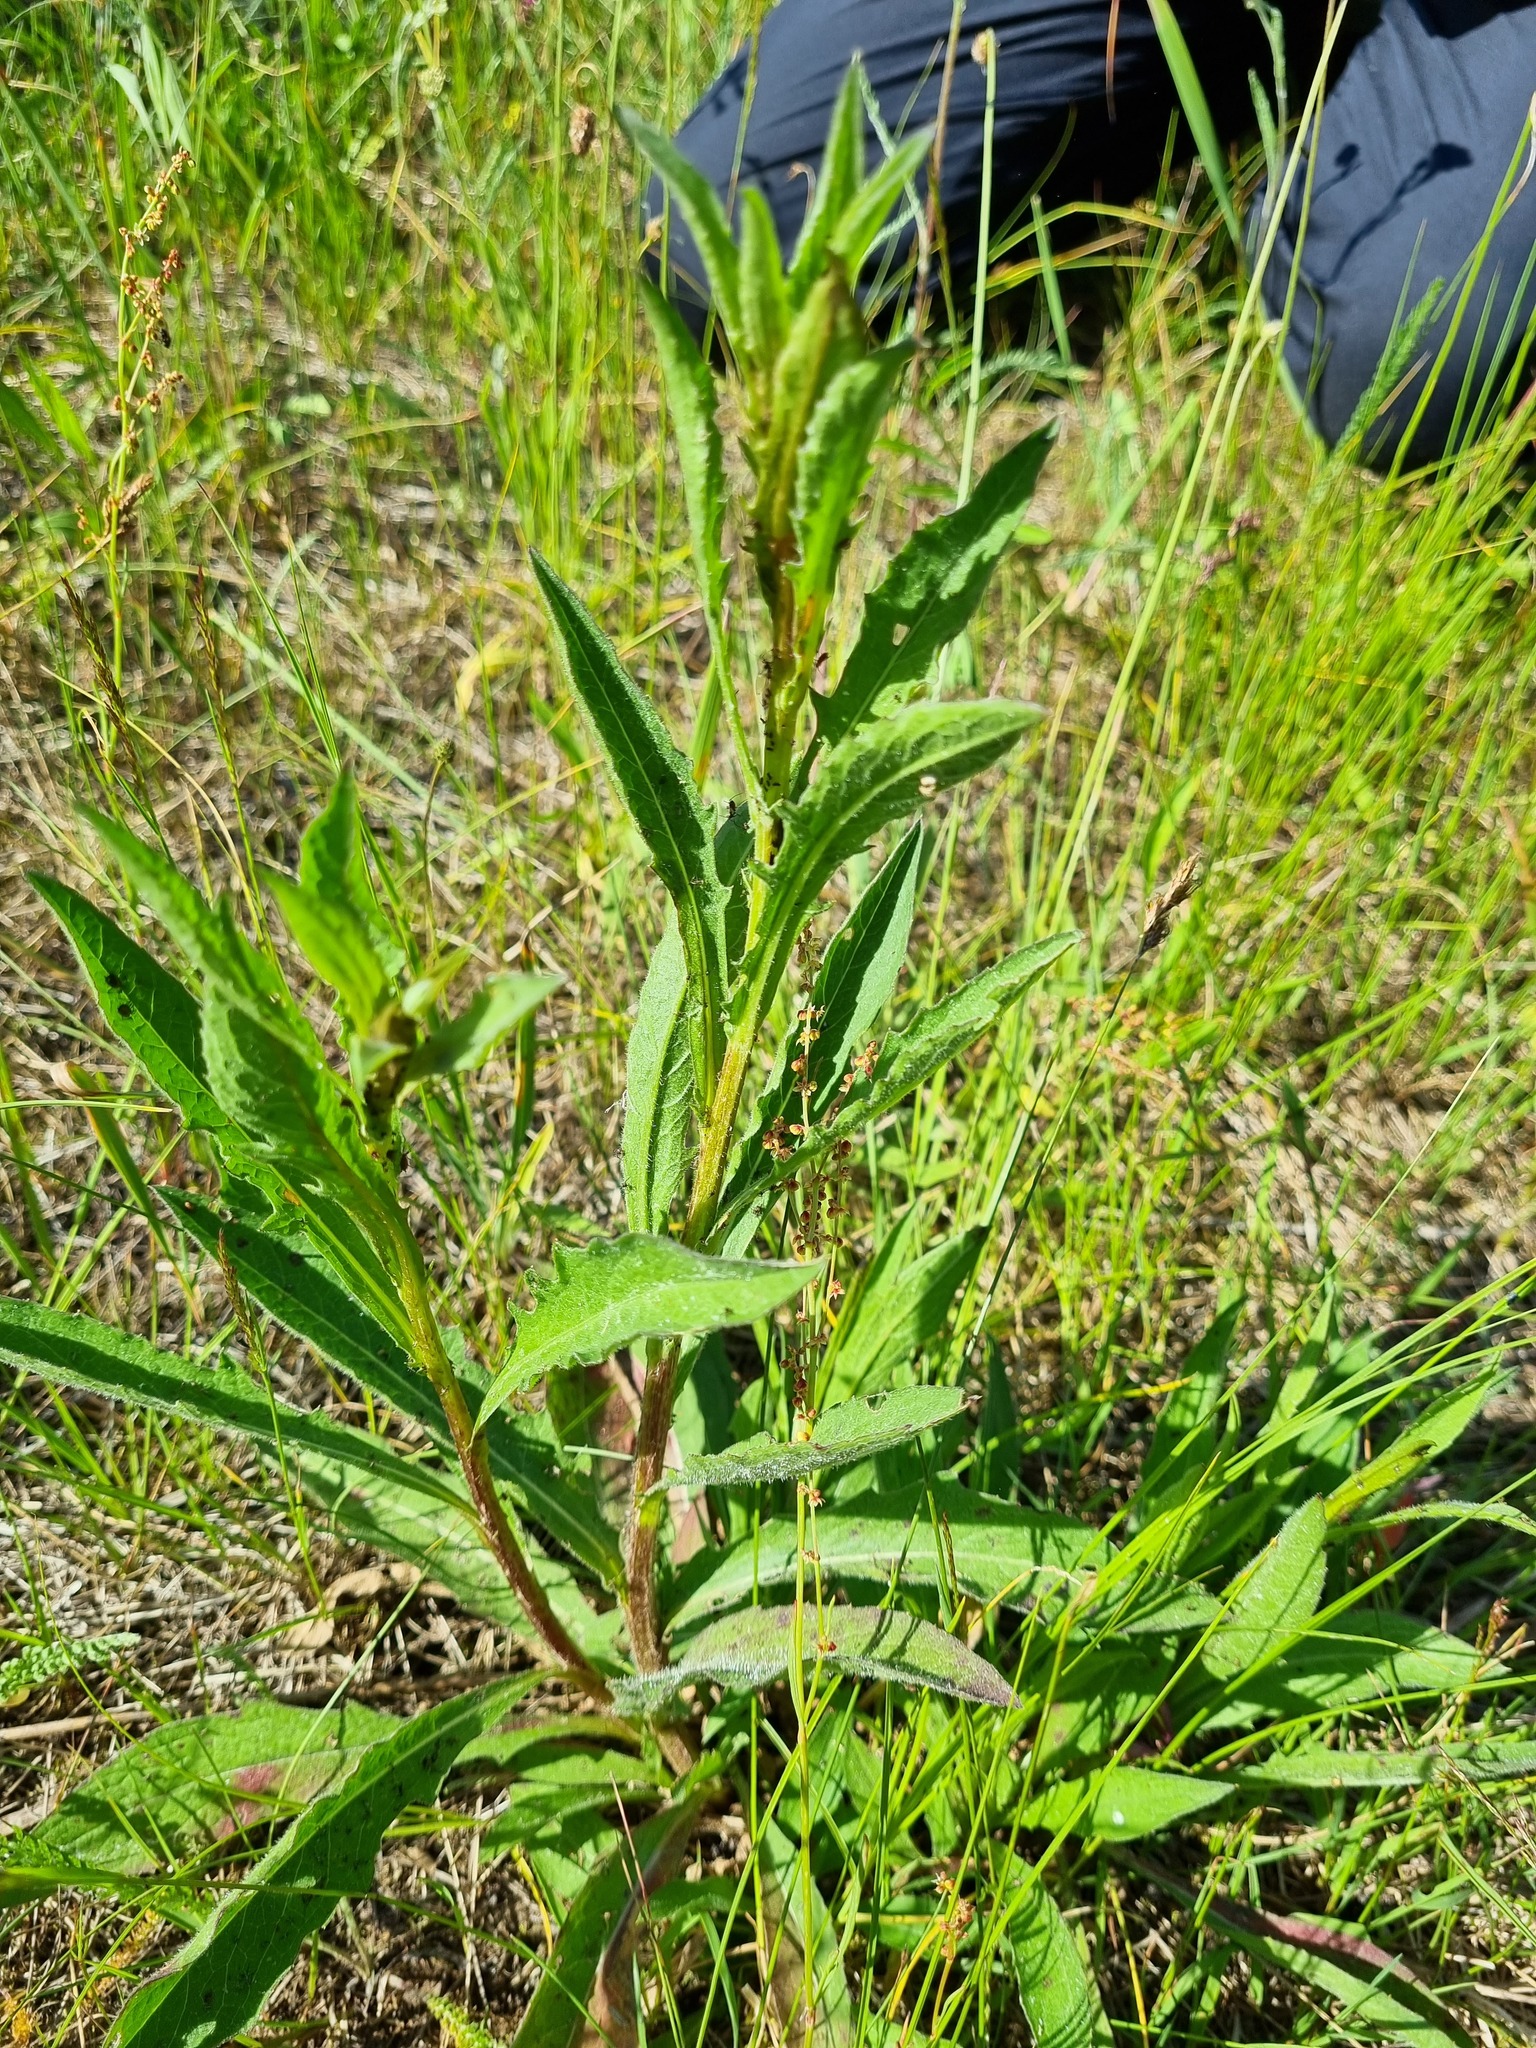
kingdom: Plantae
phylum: Tracheophyta
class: Magnoliopsida
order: Asterales
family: Asteraceae
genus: Centaurea
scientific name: Centaurea jacea
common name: Brown knapweed
